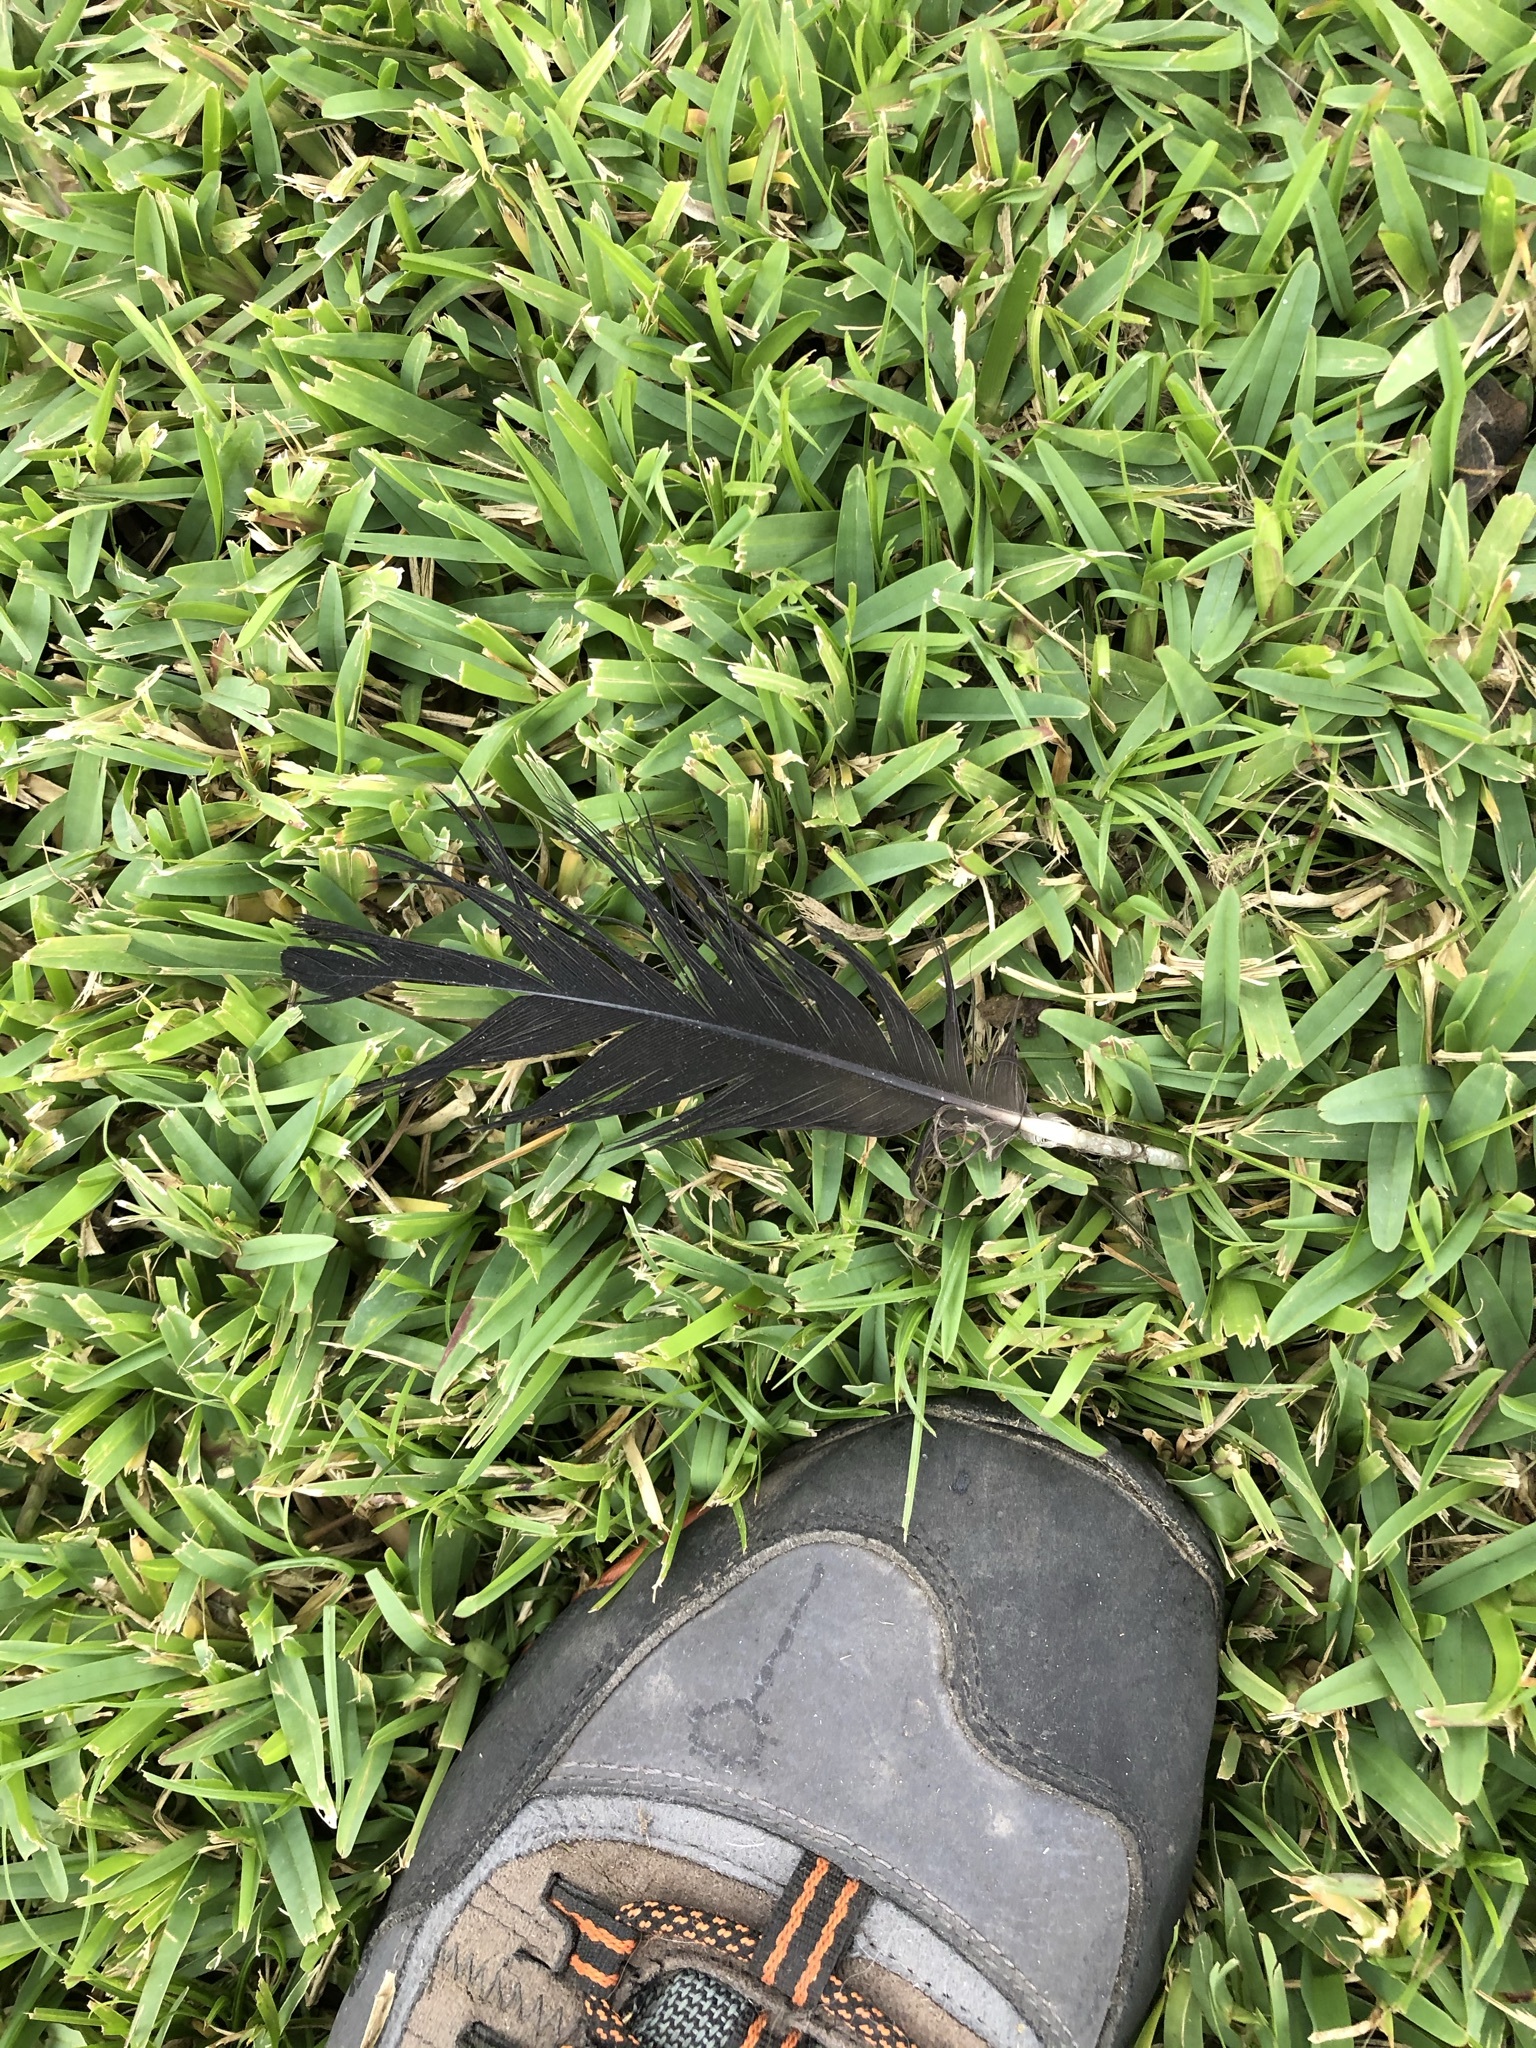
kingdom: Animalia
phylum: Chordata
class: Aves
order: Accipitriformes
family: Cathartidae
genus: Coragyps
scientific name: Coragyps atratus
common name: Black vulture
